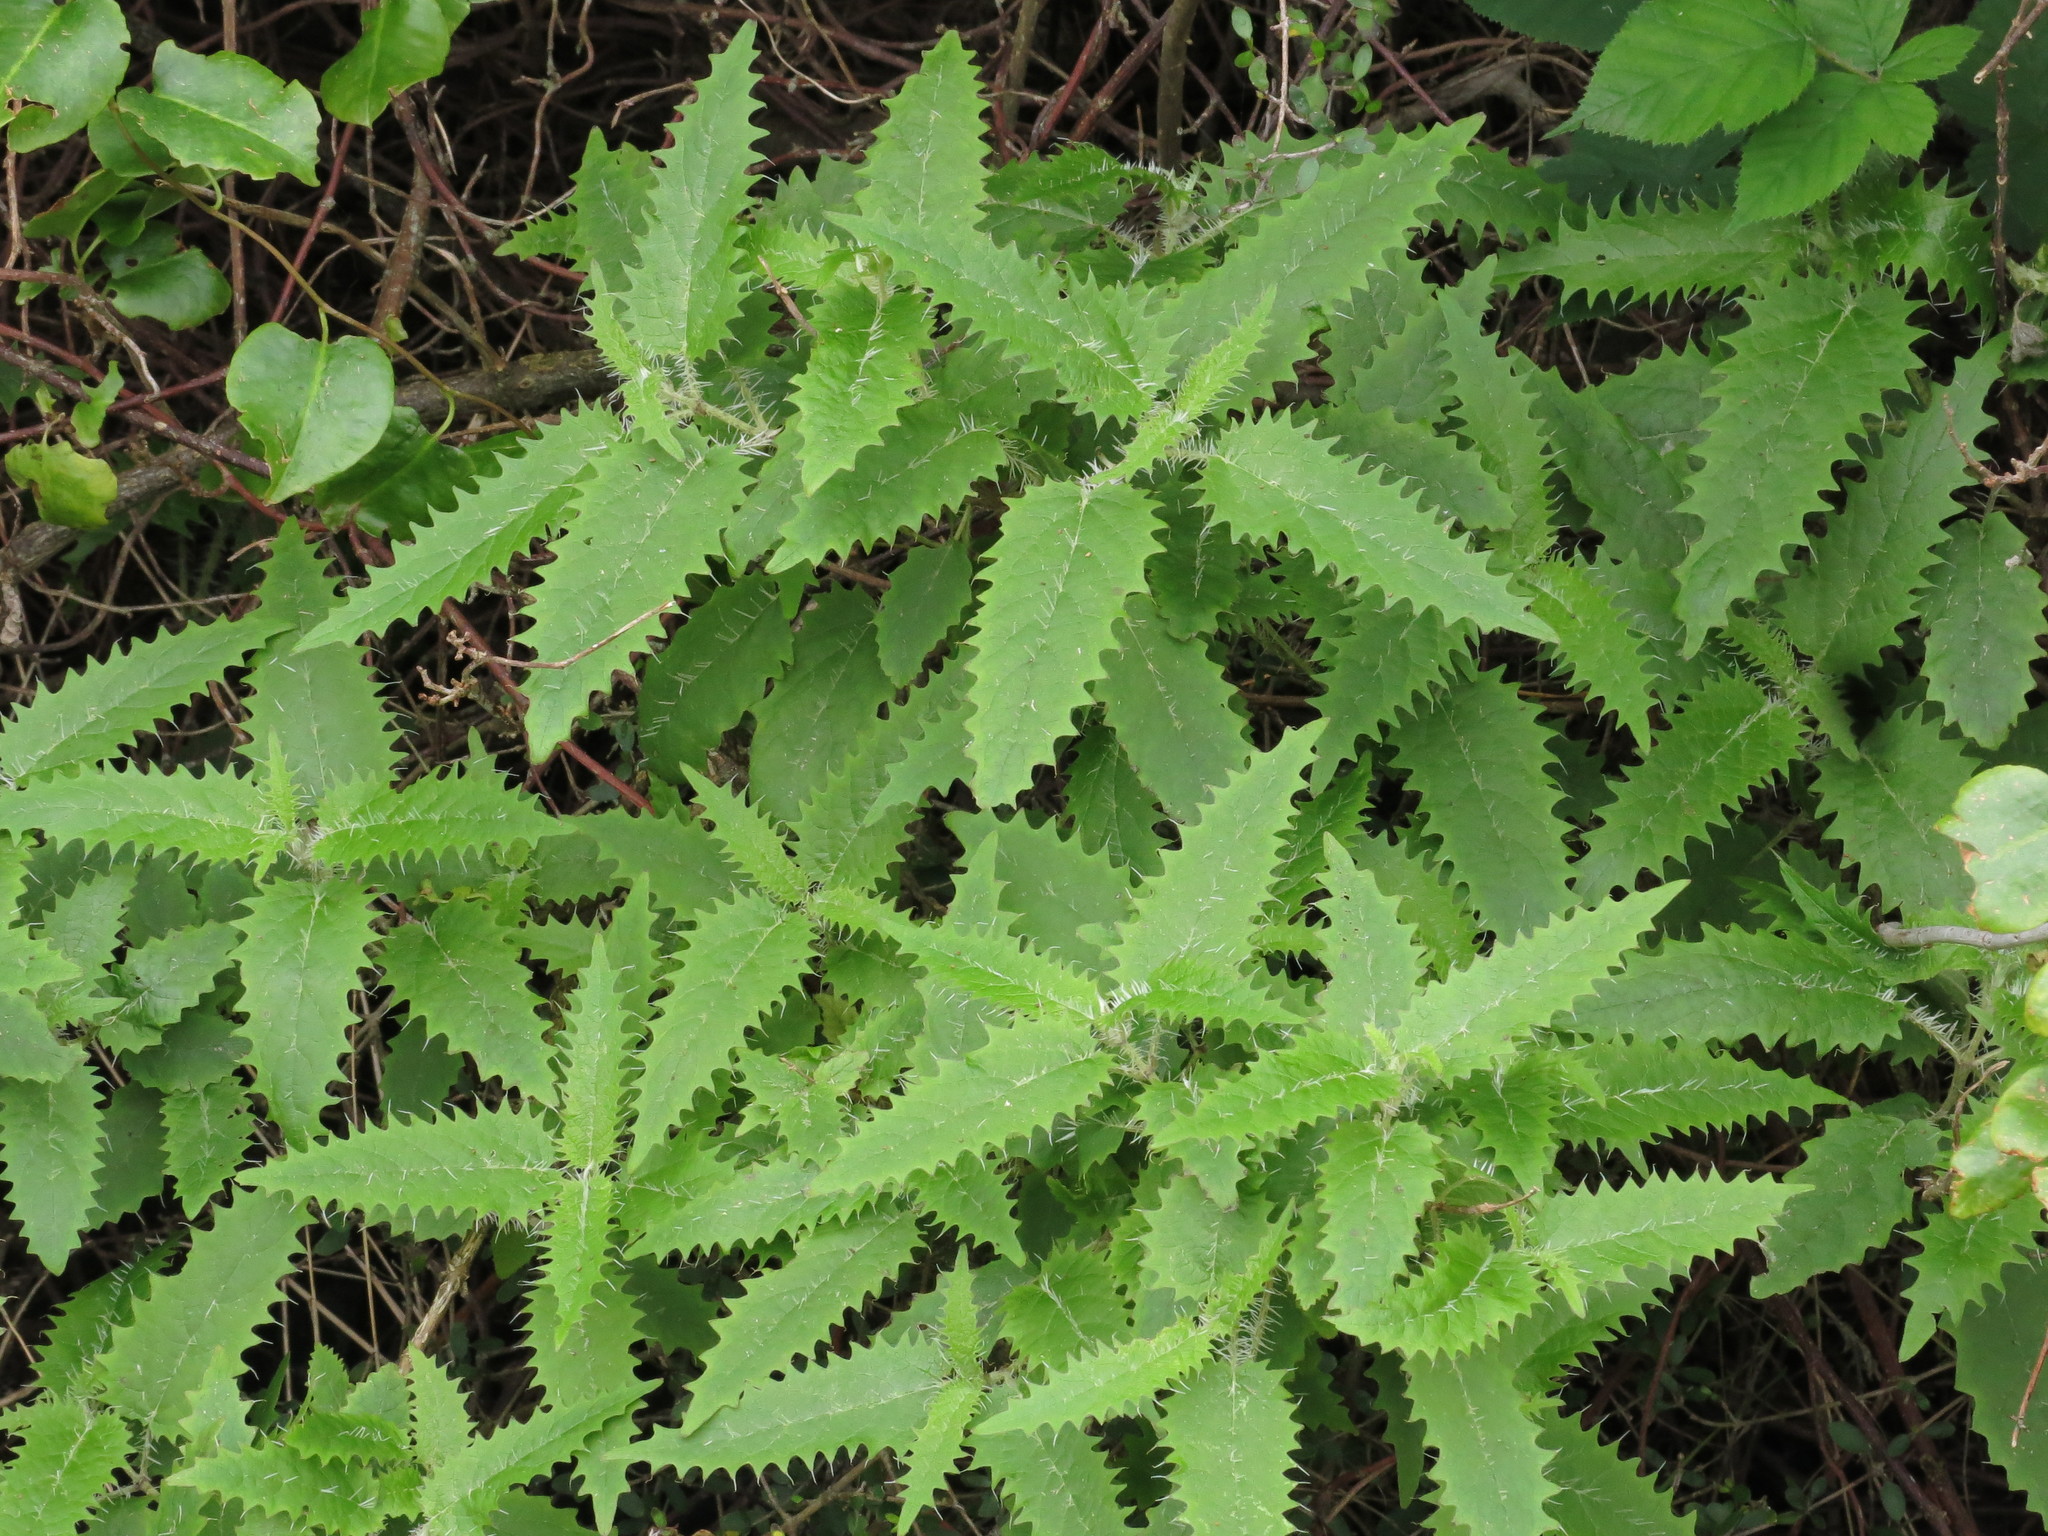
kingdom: Plantae
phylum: Tracheophyta
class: Magnoliopsida
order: Rosales
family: Urticaceae
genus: Urtica
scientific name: Urtica ferox
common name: Tree nettle
